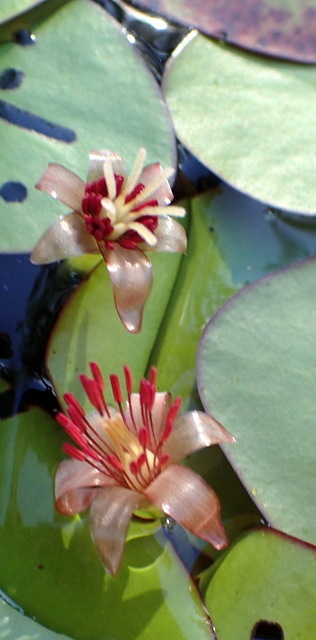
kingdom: Plantae
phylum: Tracheophyta
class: Magnoliopsida
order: Nymphaeales
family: Cabombaceae
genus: Brasenia
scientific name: Brasenia schreberi
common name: Water-shield
